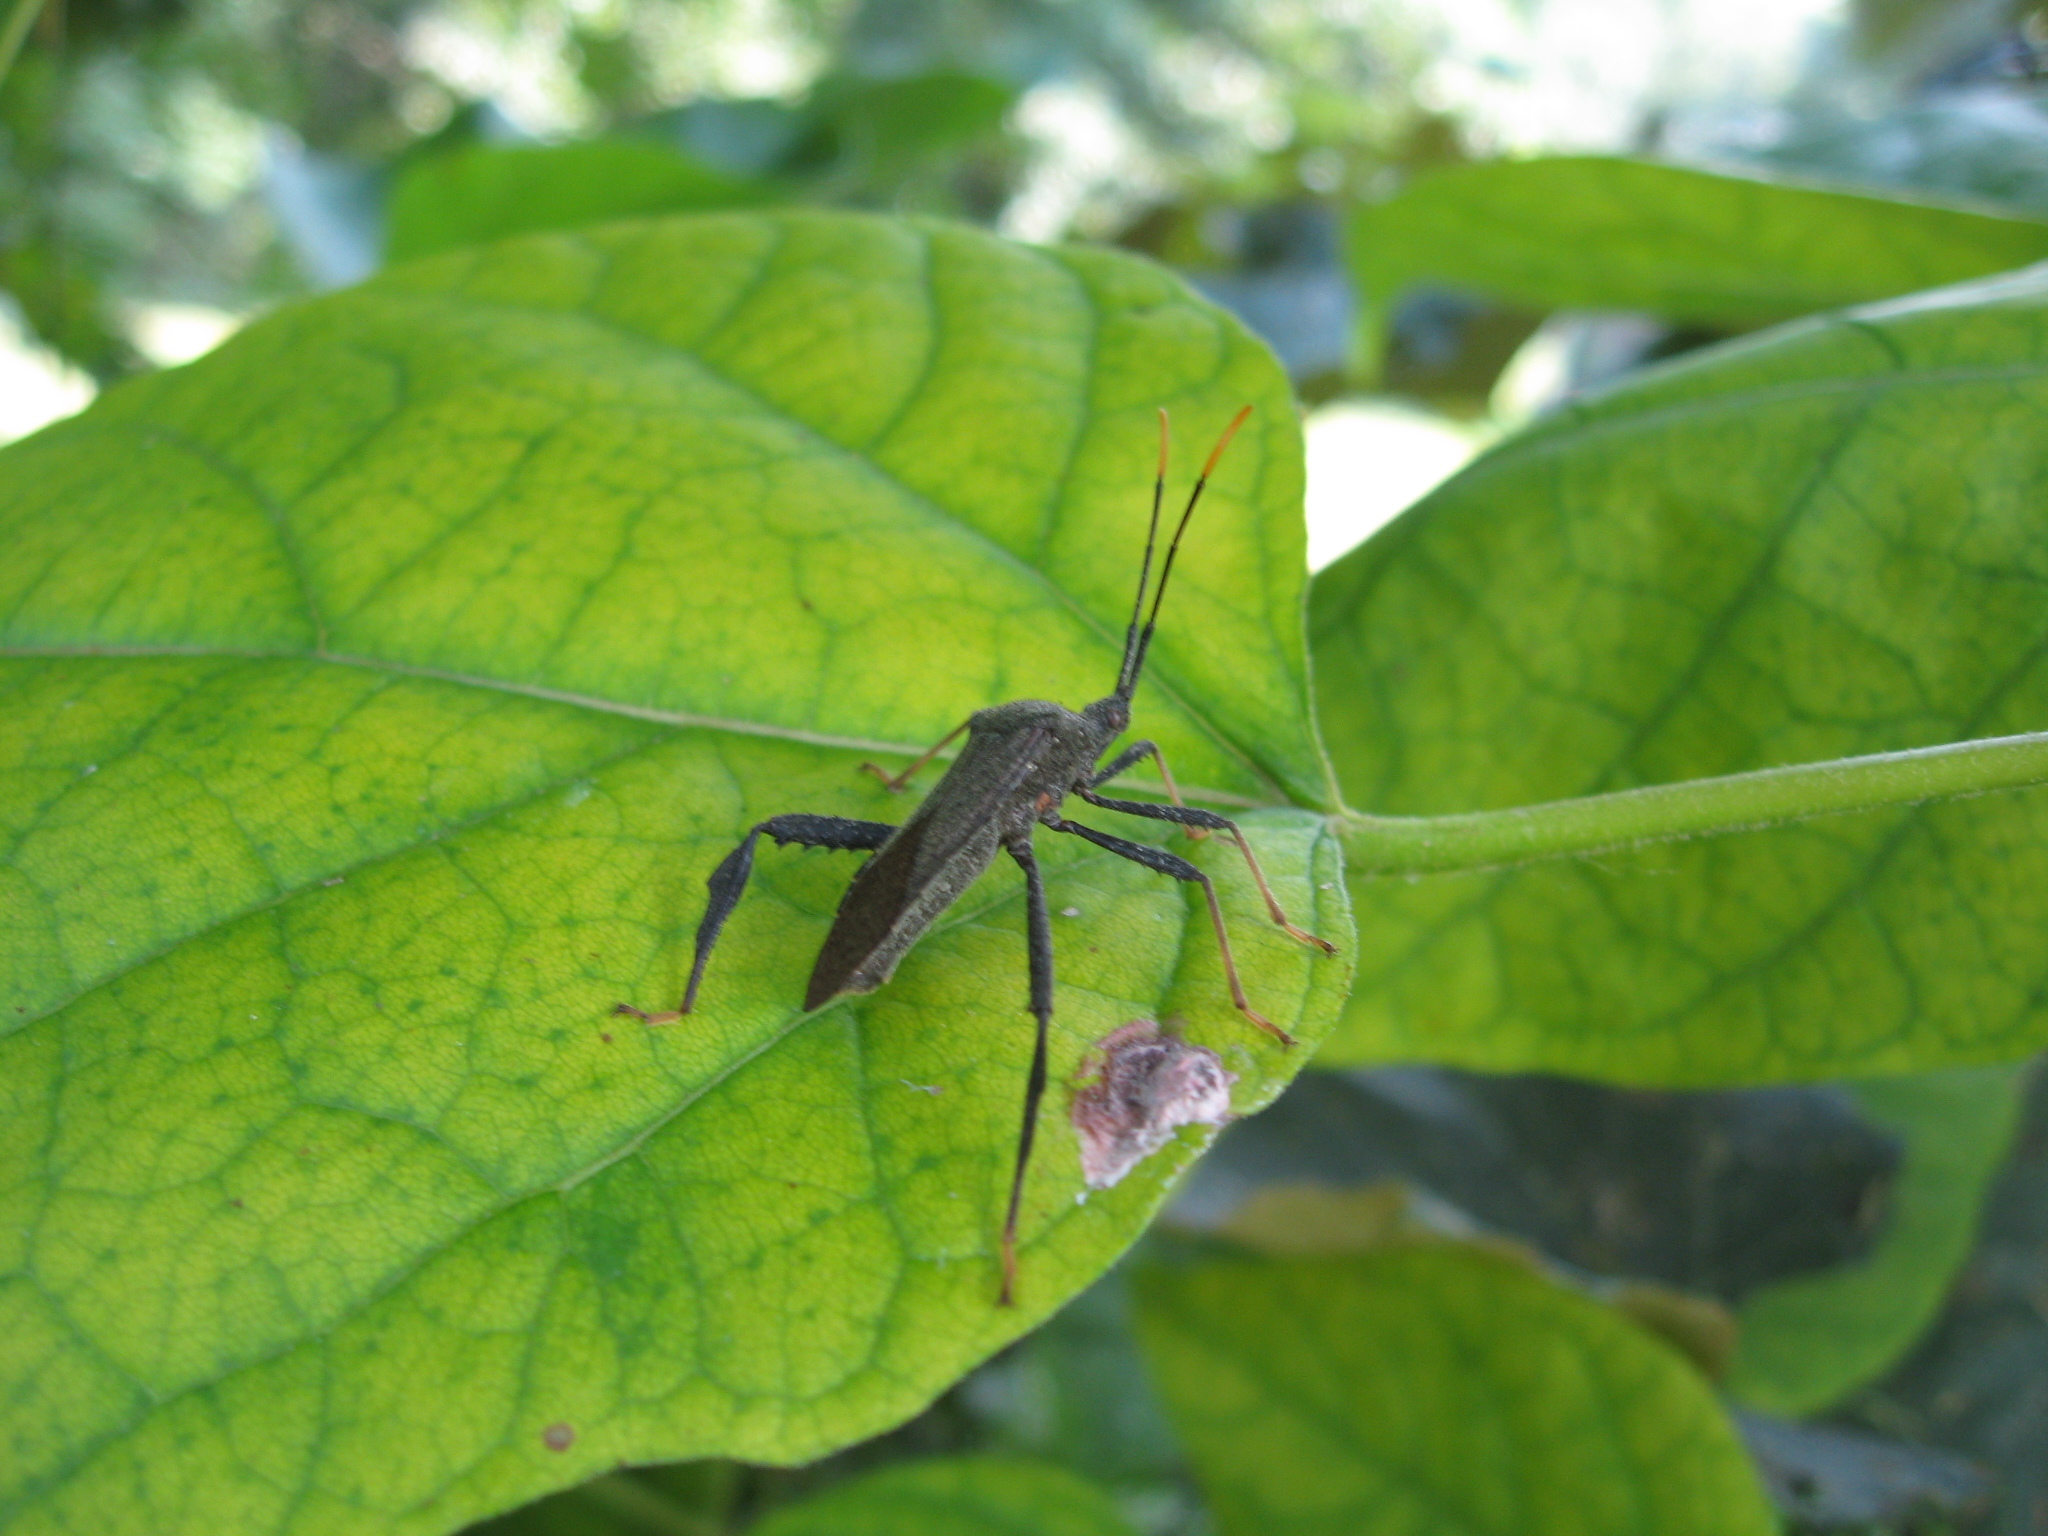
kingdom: Animalia
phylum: Arthropoda
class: Insecta
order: Hemiptera
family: Coreidae
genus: Acanthocephala
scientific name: Acanthocephala terminalis
